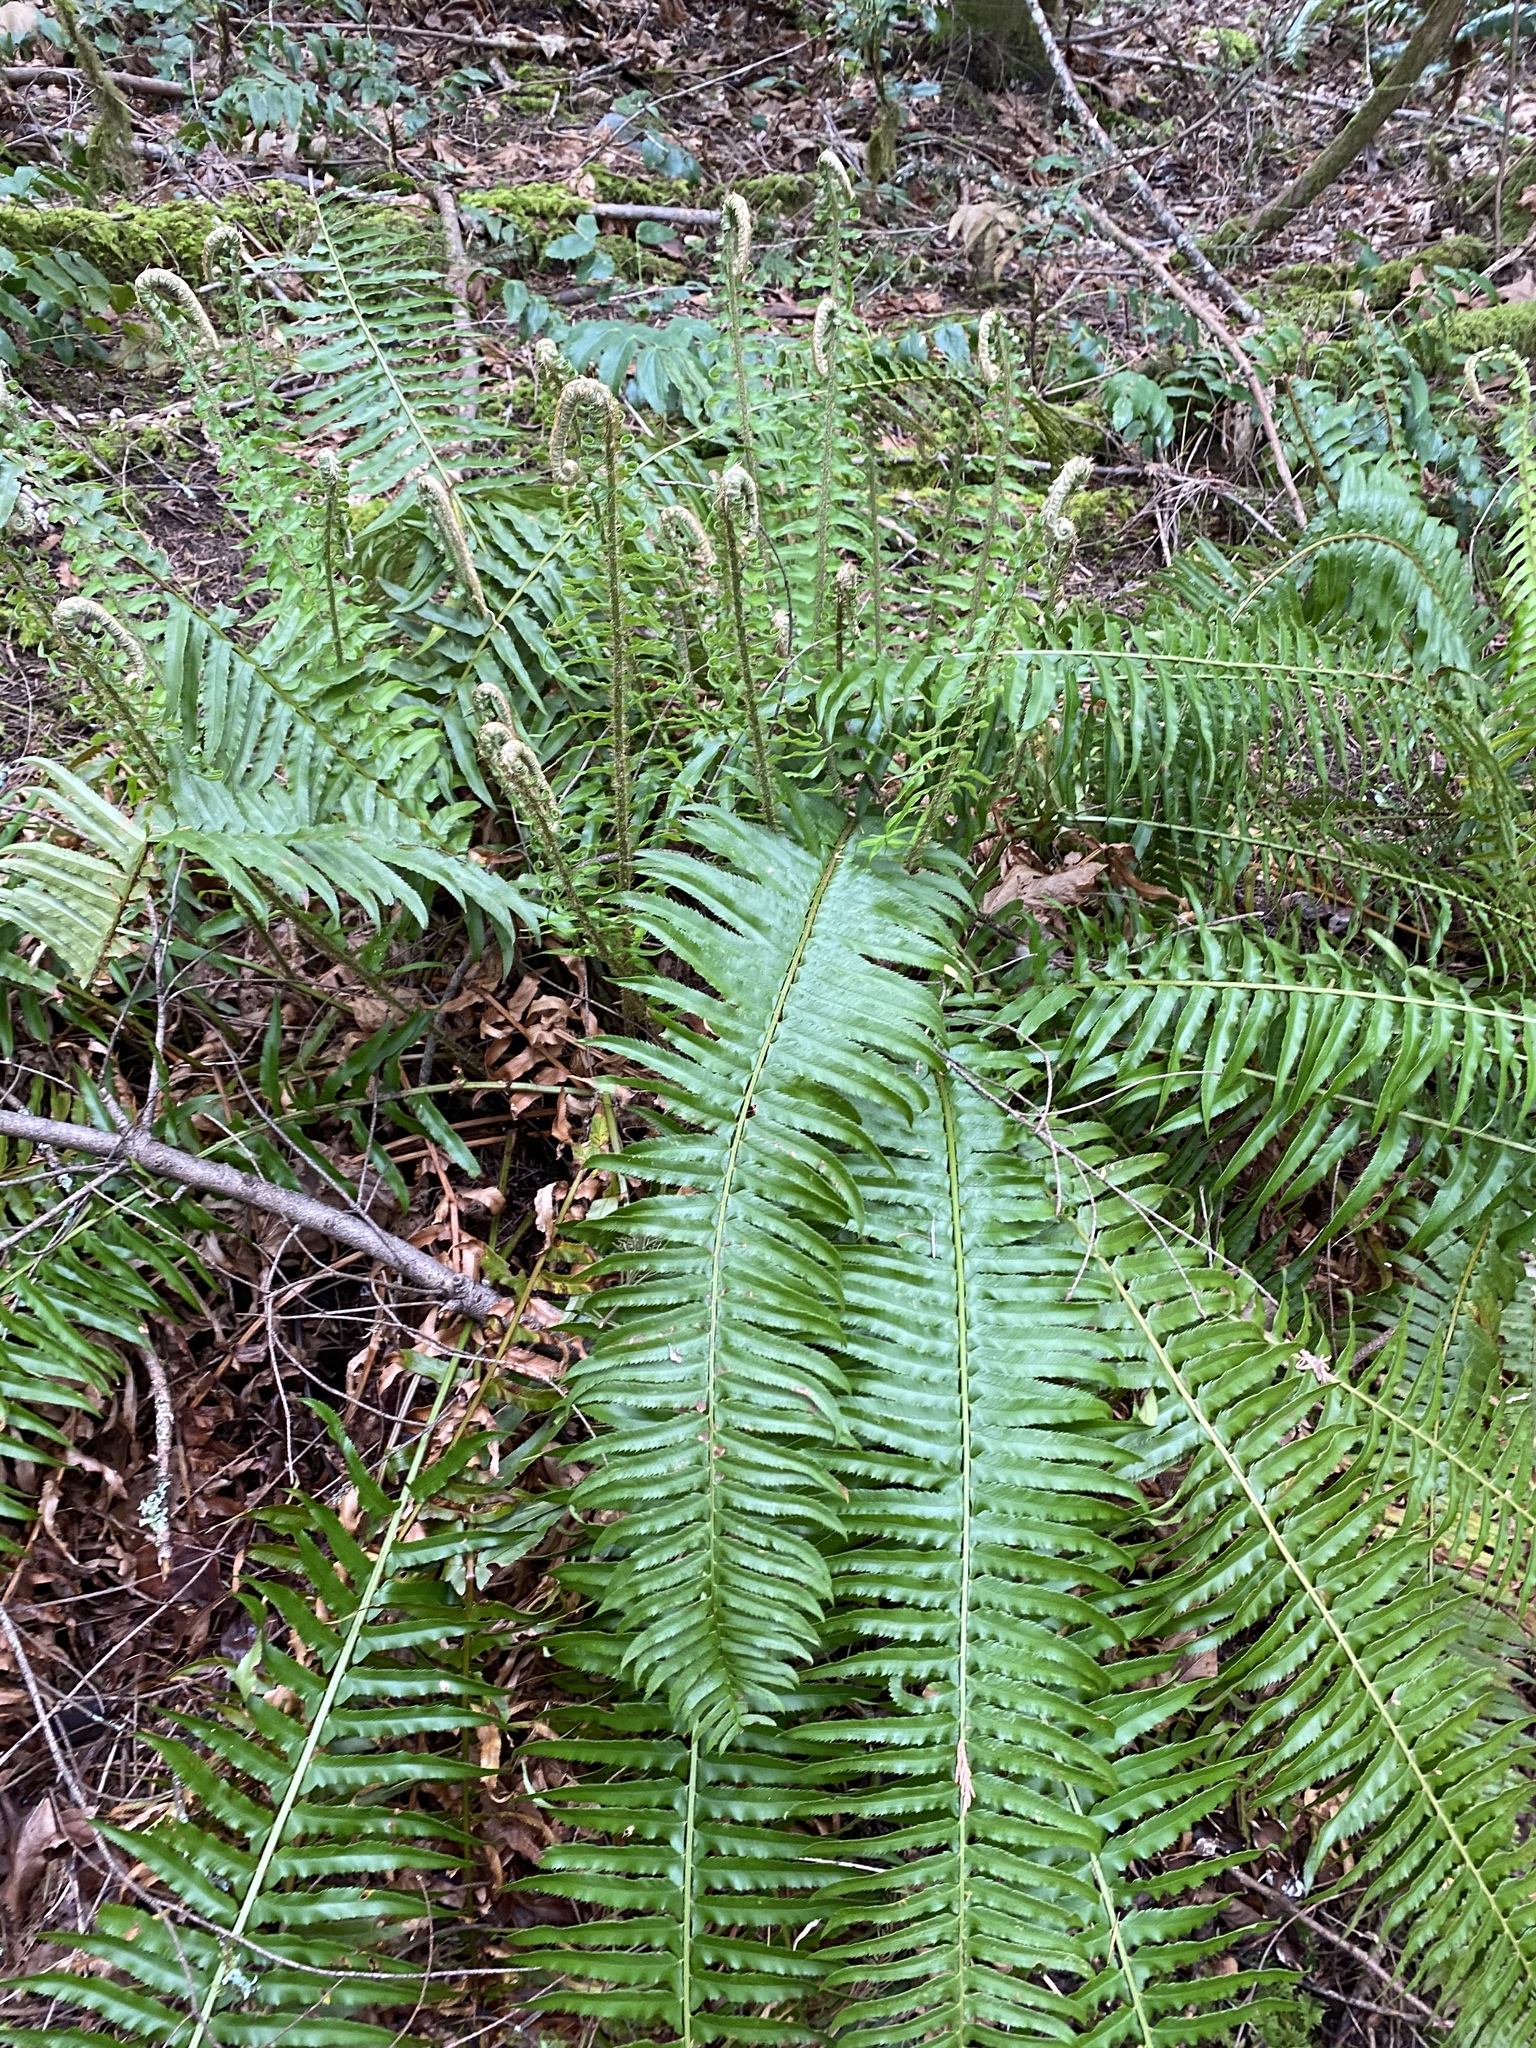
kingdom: Plantae
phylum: Tracheophyta
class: Polypodiopsida
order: Polypodiales
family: Dryopteridaceae
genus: Polystichum
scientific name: Polystichum munitum
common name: Western sword-fern
